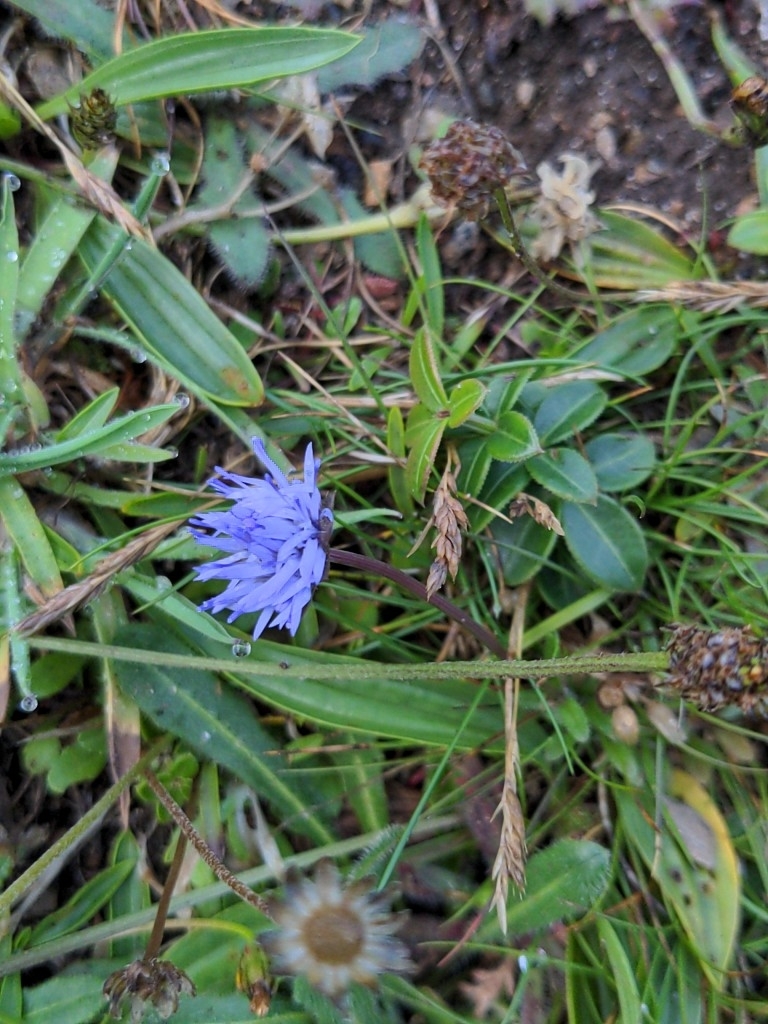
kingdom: Plantae
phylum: Tracheophyta
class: Magnoliopsida
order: Asterales
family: Campanulaceae
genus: Jasione
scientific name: Jasione montana
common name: Sheep's-bit
